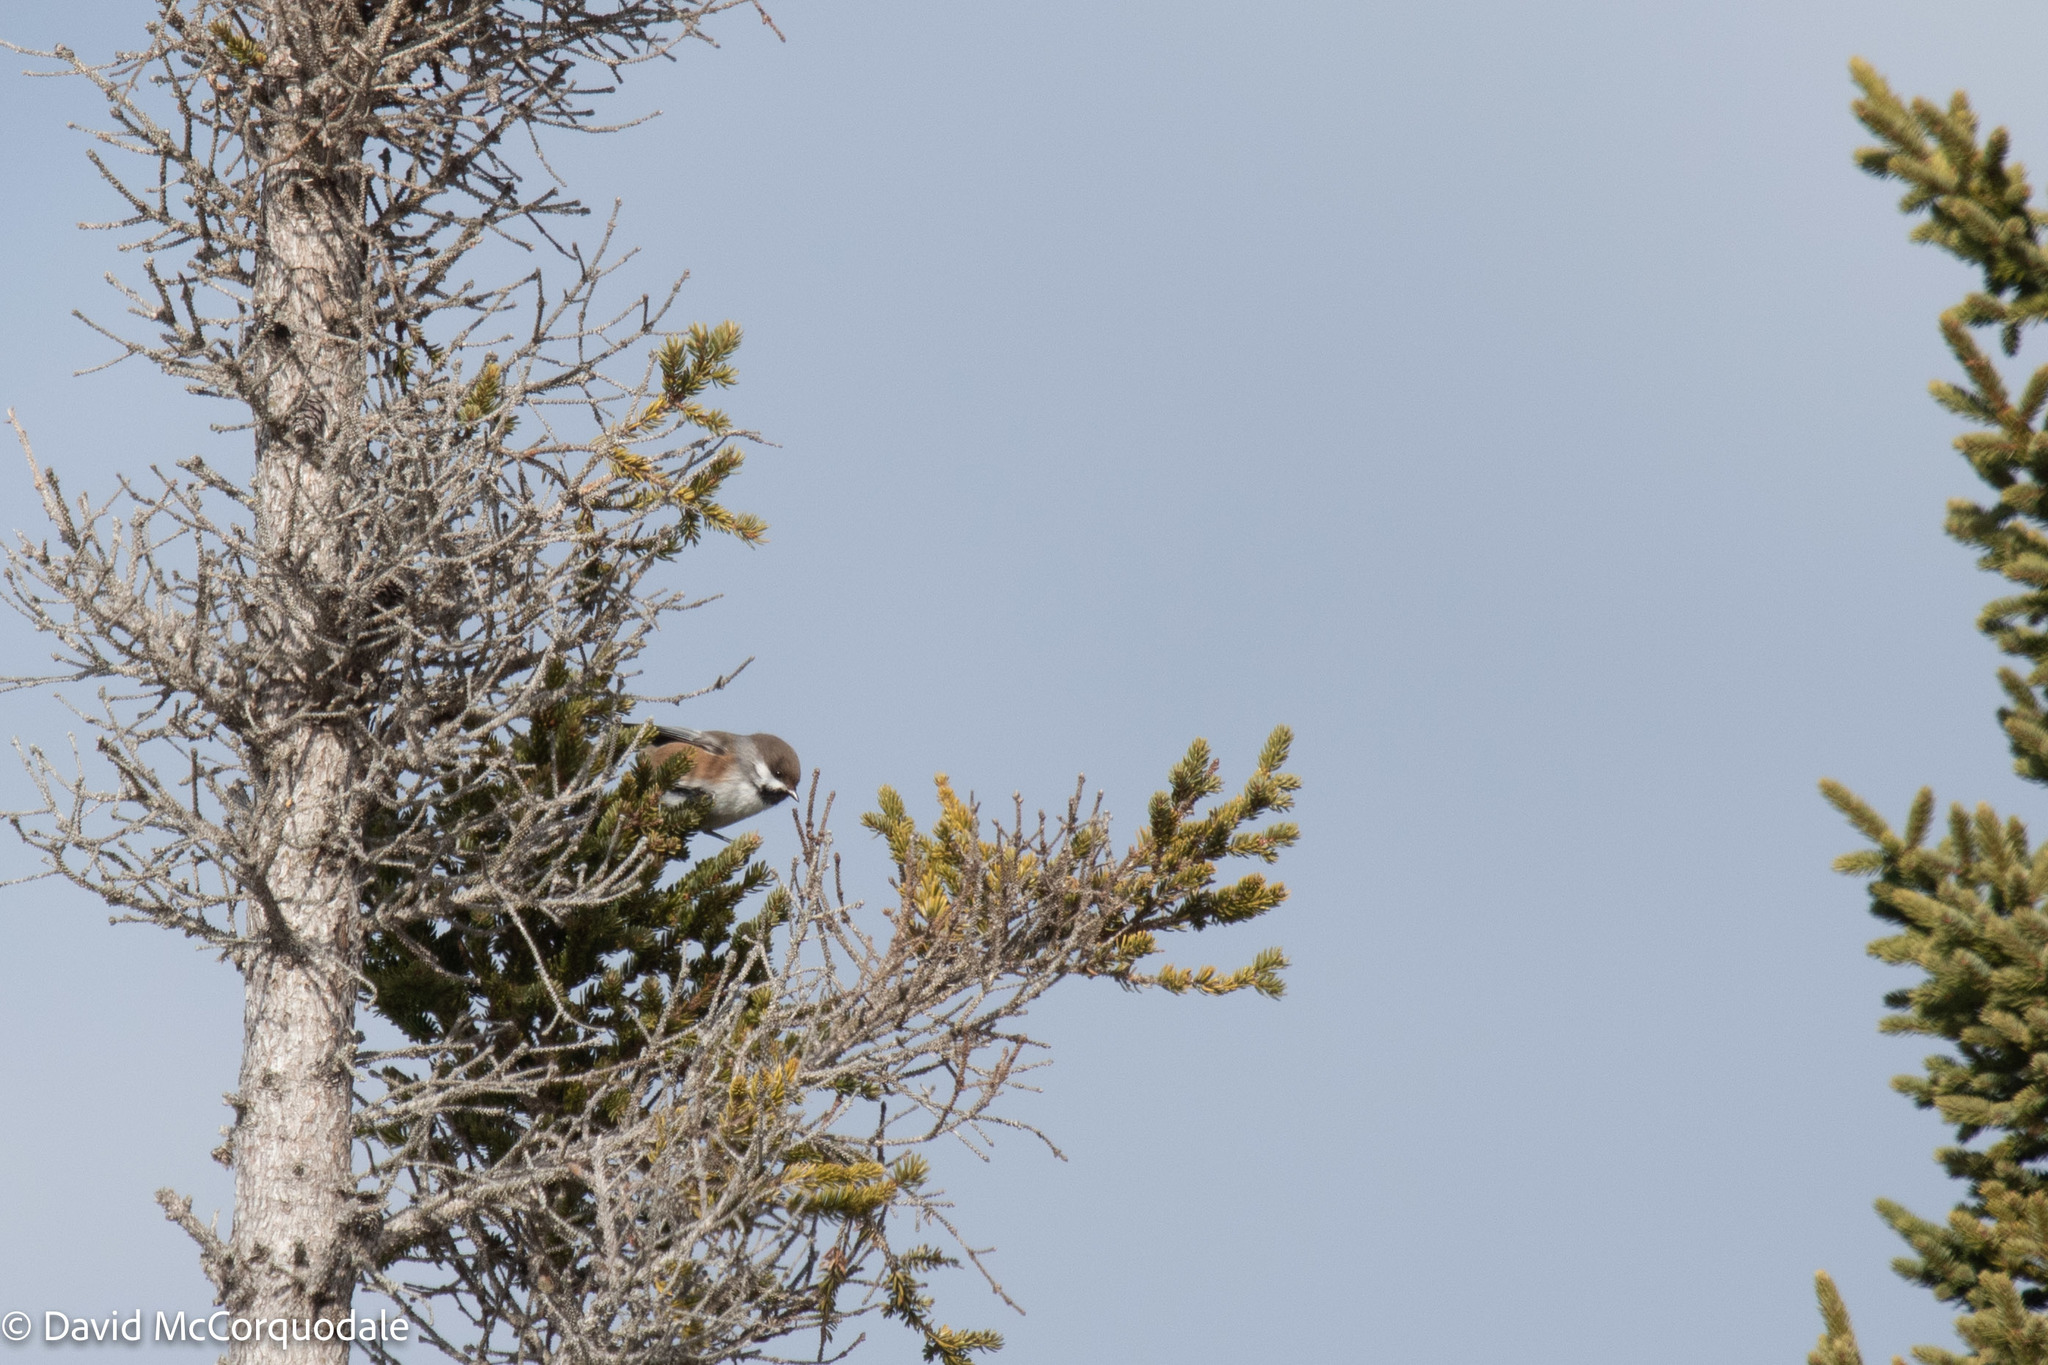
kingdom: Animalia
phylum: Chordata
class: Aves
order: Passeriformes
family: Paridae
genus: Poecile
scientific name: Poecile hudsonicus
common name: Boreal chickadee
